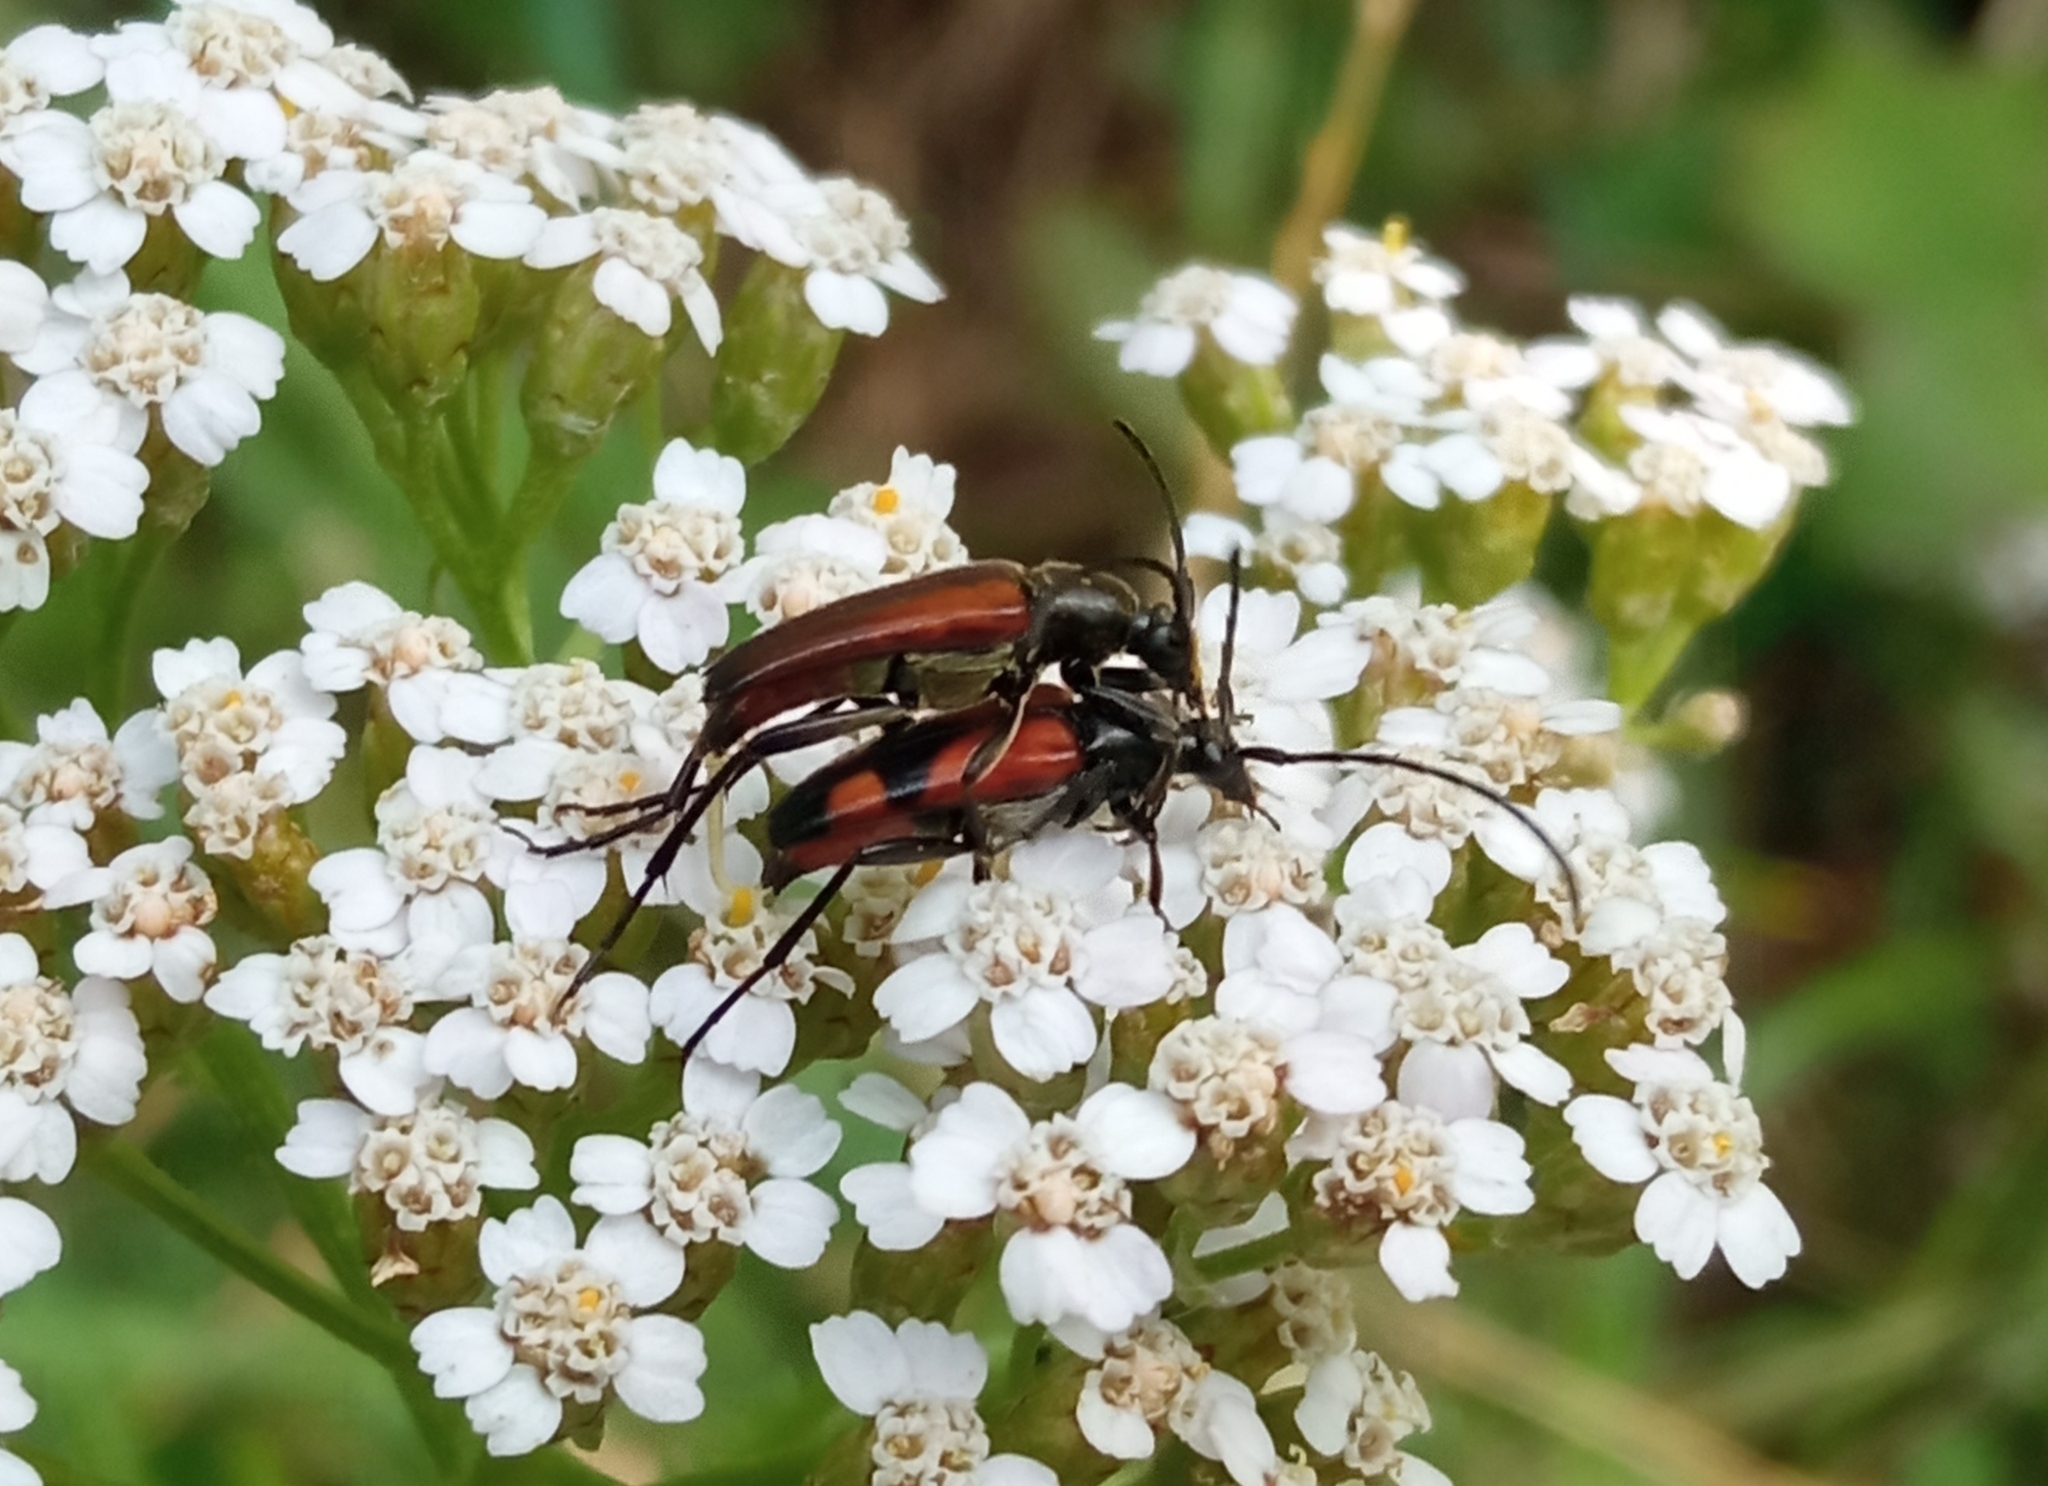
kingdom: Animalia
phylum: Arthropoda
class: Insecta
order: Coleoptera
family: Cerambycidae
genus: Stenurella
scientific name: Stenurella bifasciata
